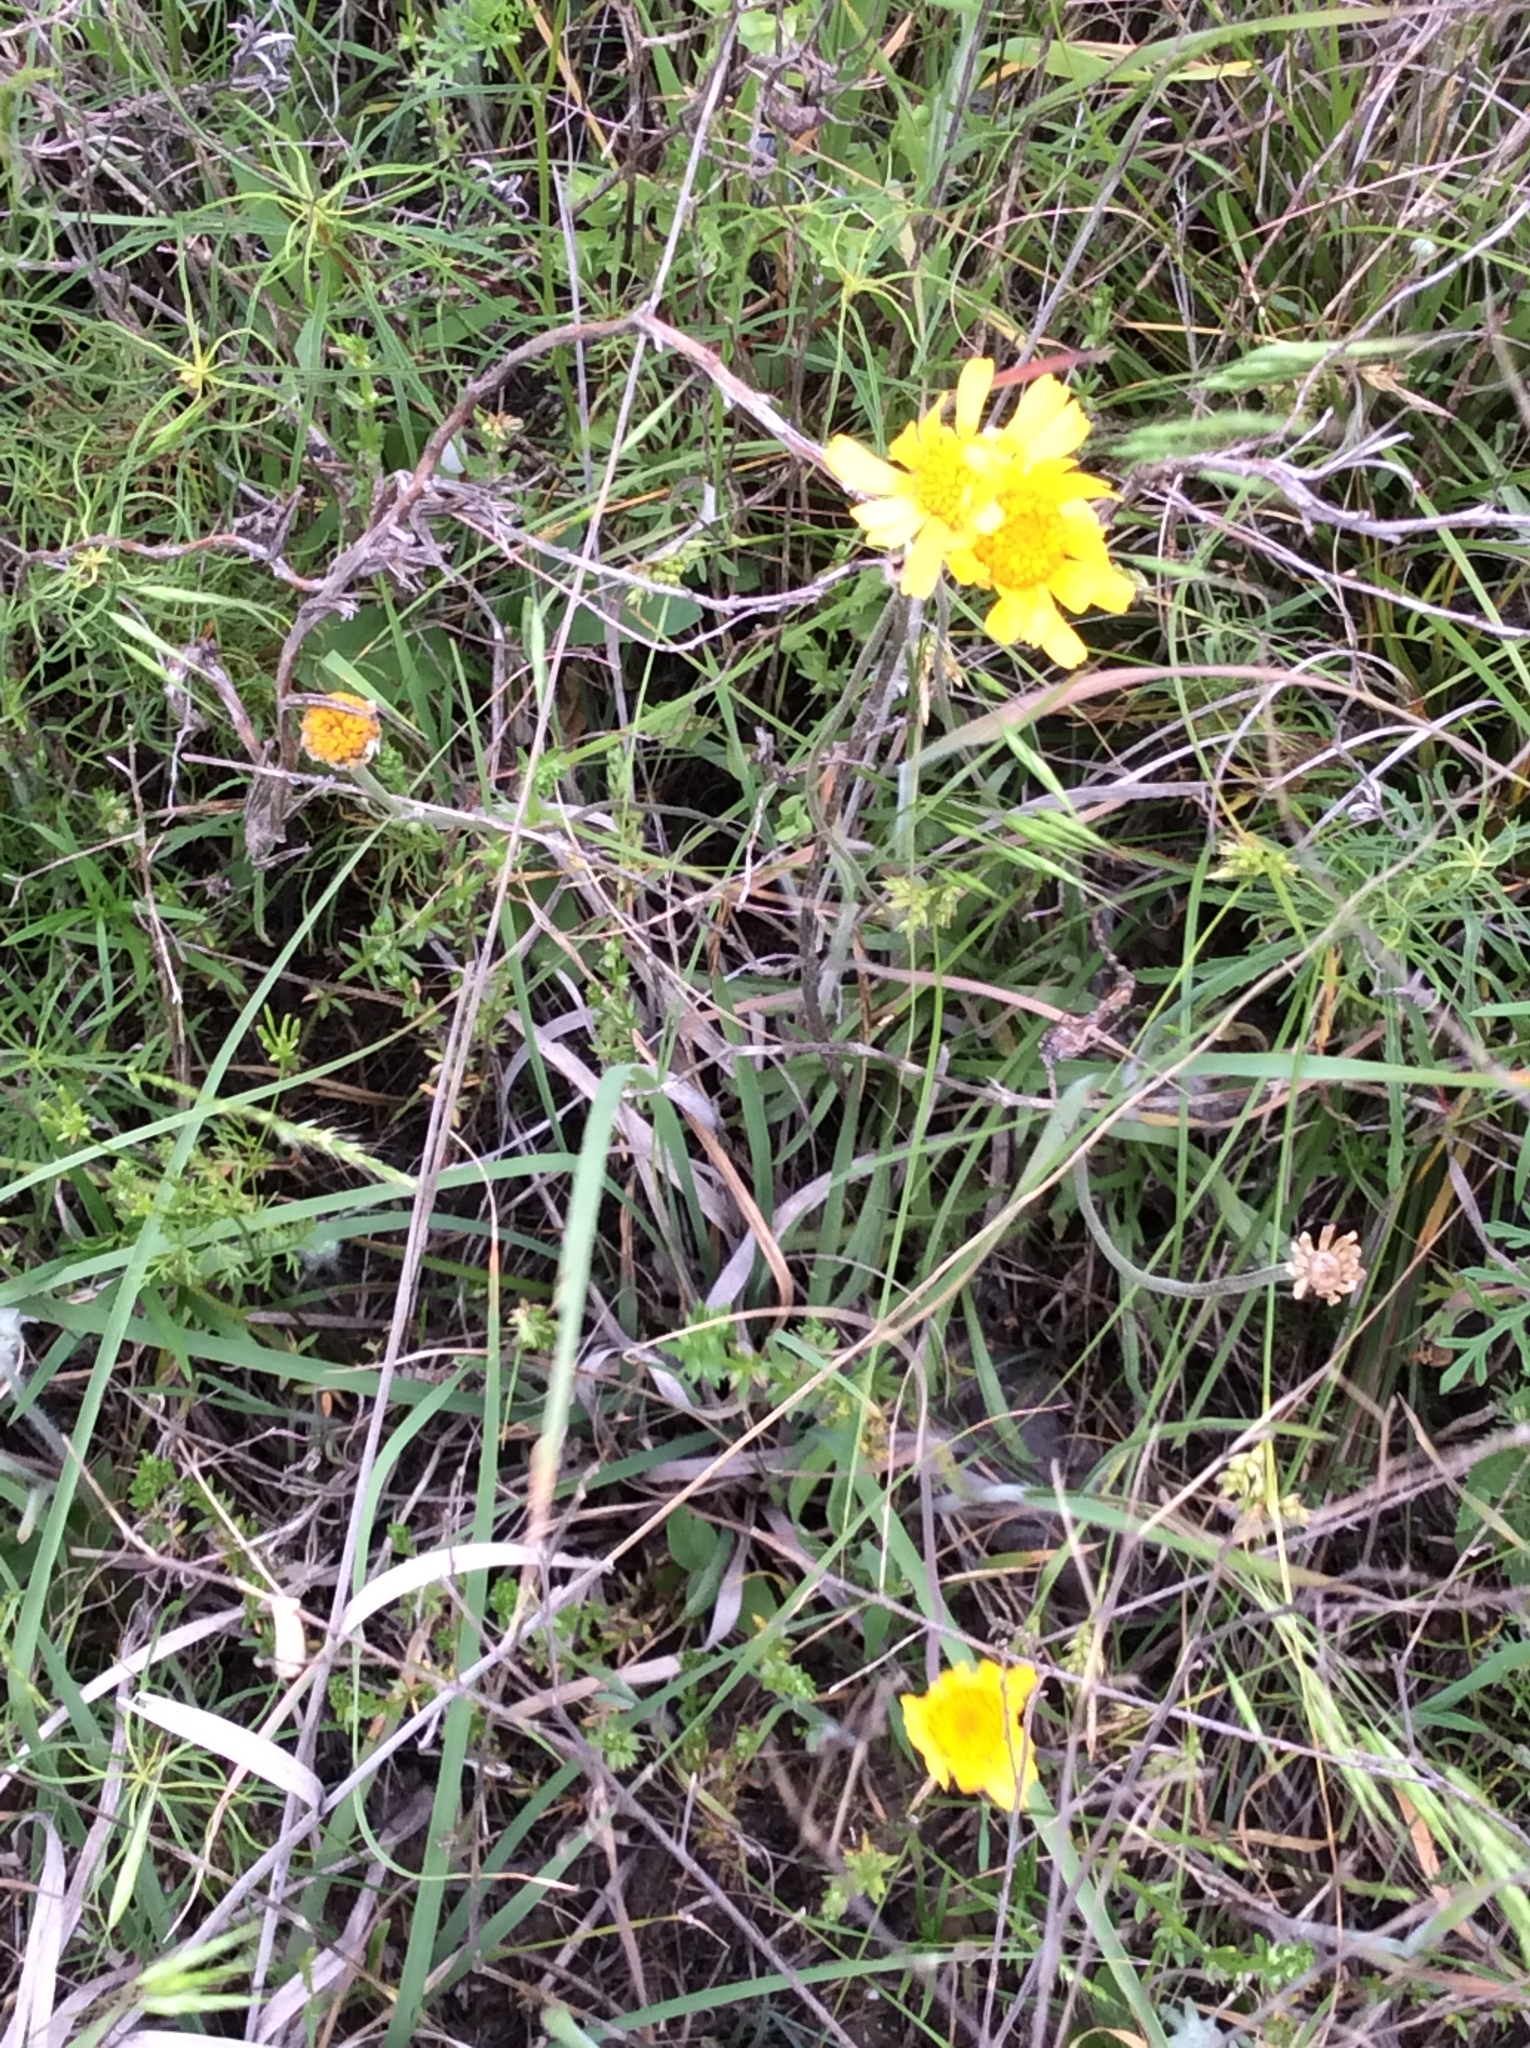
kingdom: Plantae
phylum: Tracheophyta
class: Magnoliopsida
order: Asterales
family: Asteraceae
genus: Tetraneuris
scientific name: Tetraneuris scaposa
